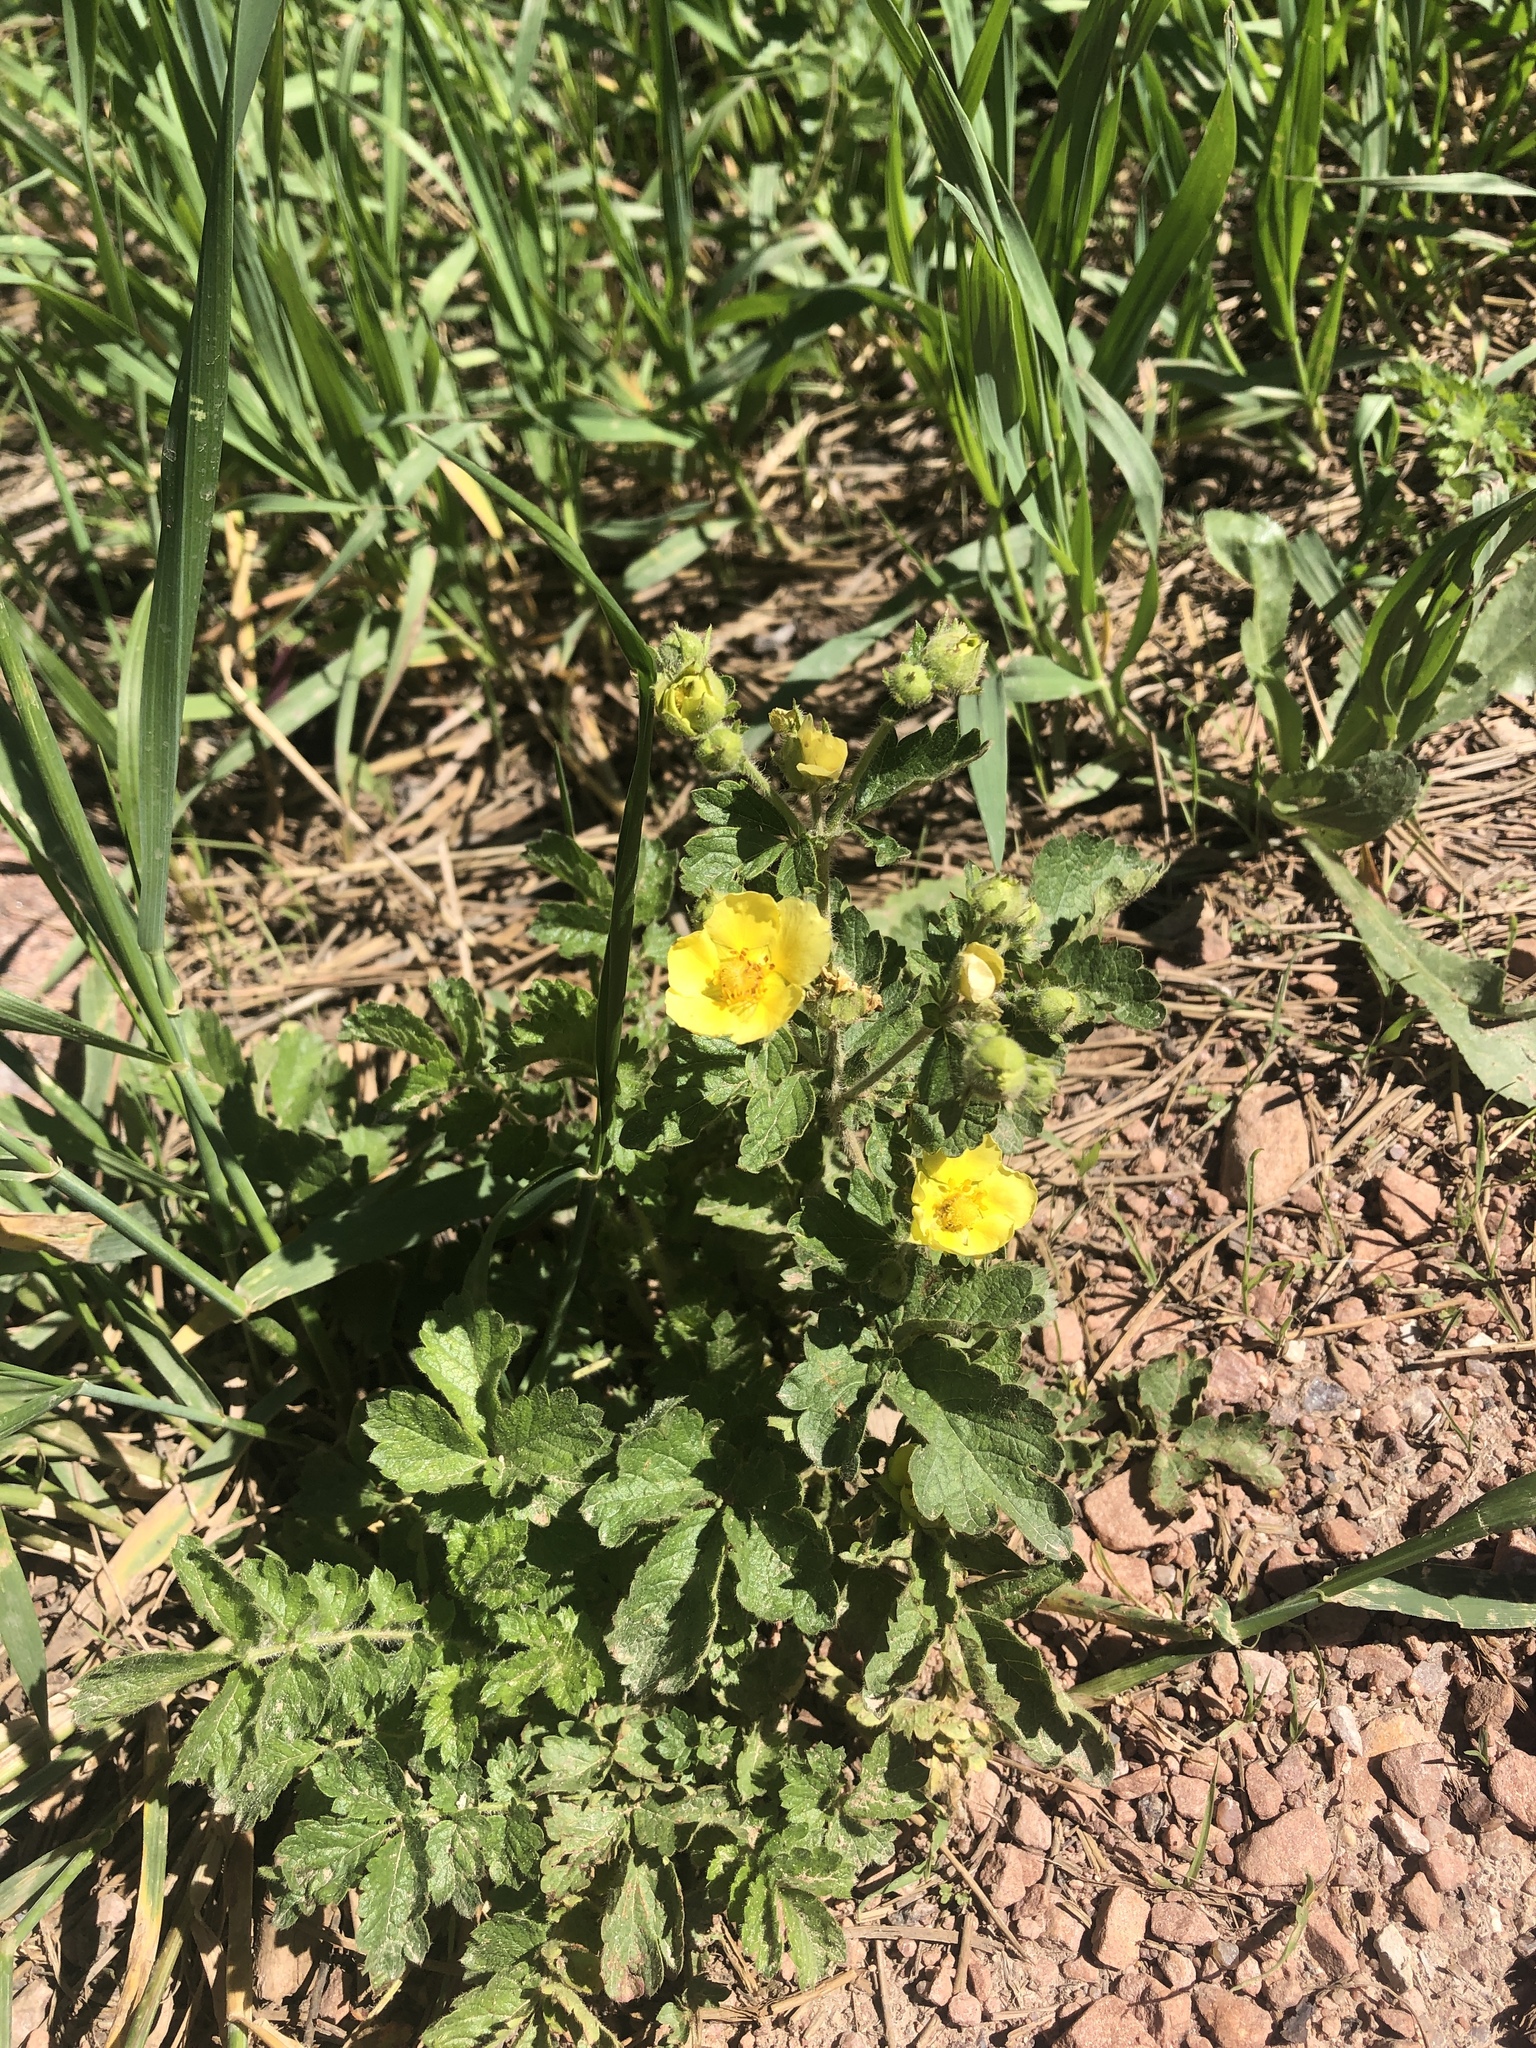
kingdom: Plantae
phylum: Tracheophyta
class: Magnoliopsida
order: Rosales
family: Rosaceae
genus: Potentilla
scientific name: Potentilla gracilis
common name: Graceful cinquefoil
